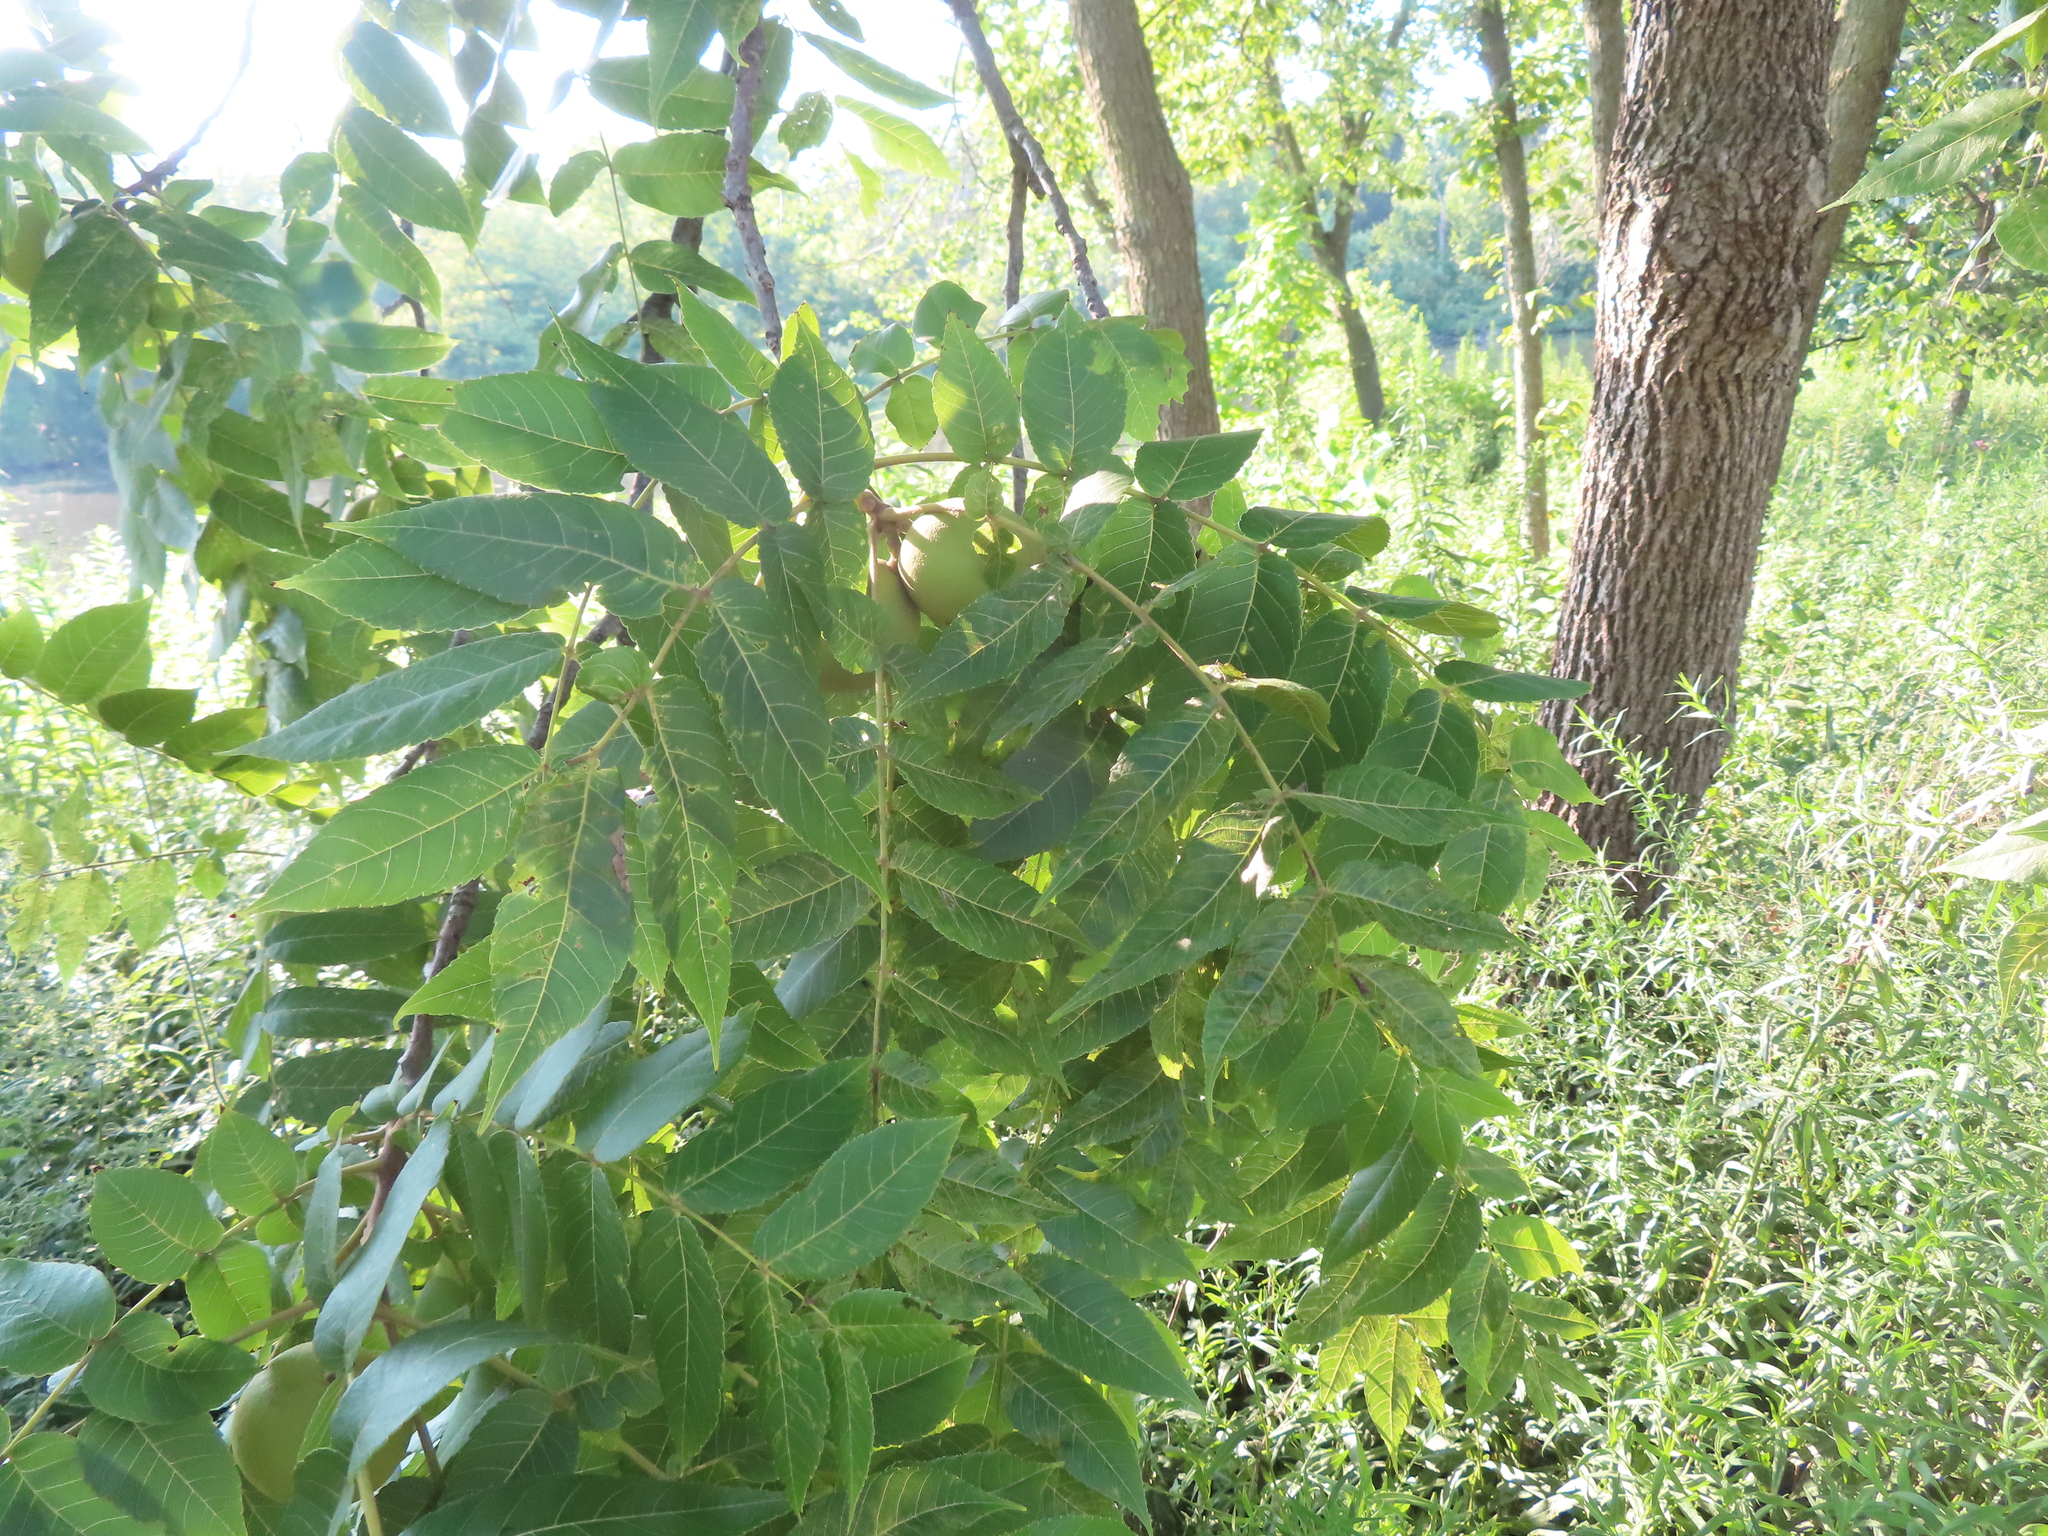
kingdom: Plantae
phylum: Tracheophyta
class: Magnoliopsida
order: Fagales
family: Juglandaceae
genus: Juglans
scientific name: Juglans nigra
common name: Black walnut
